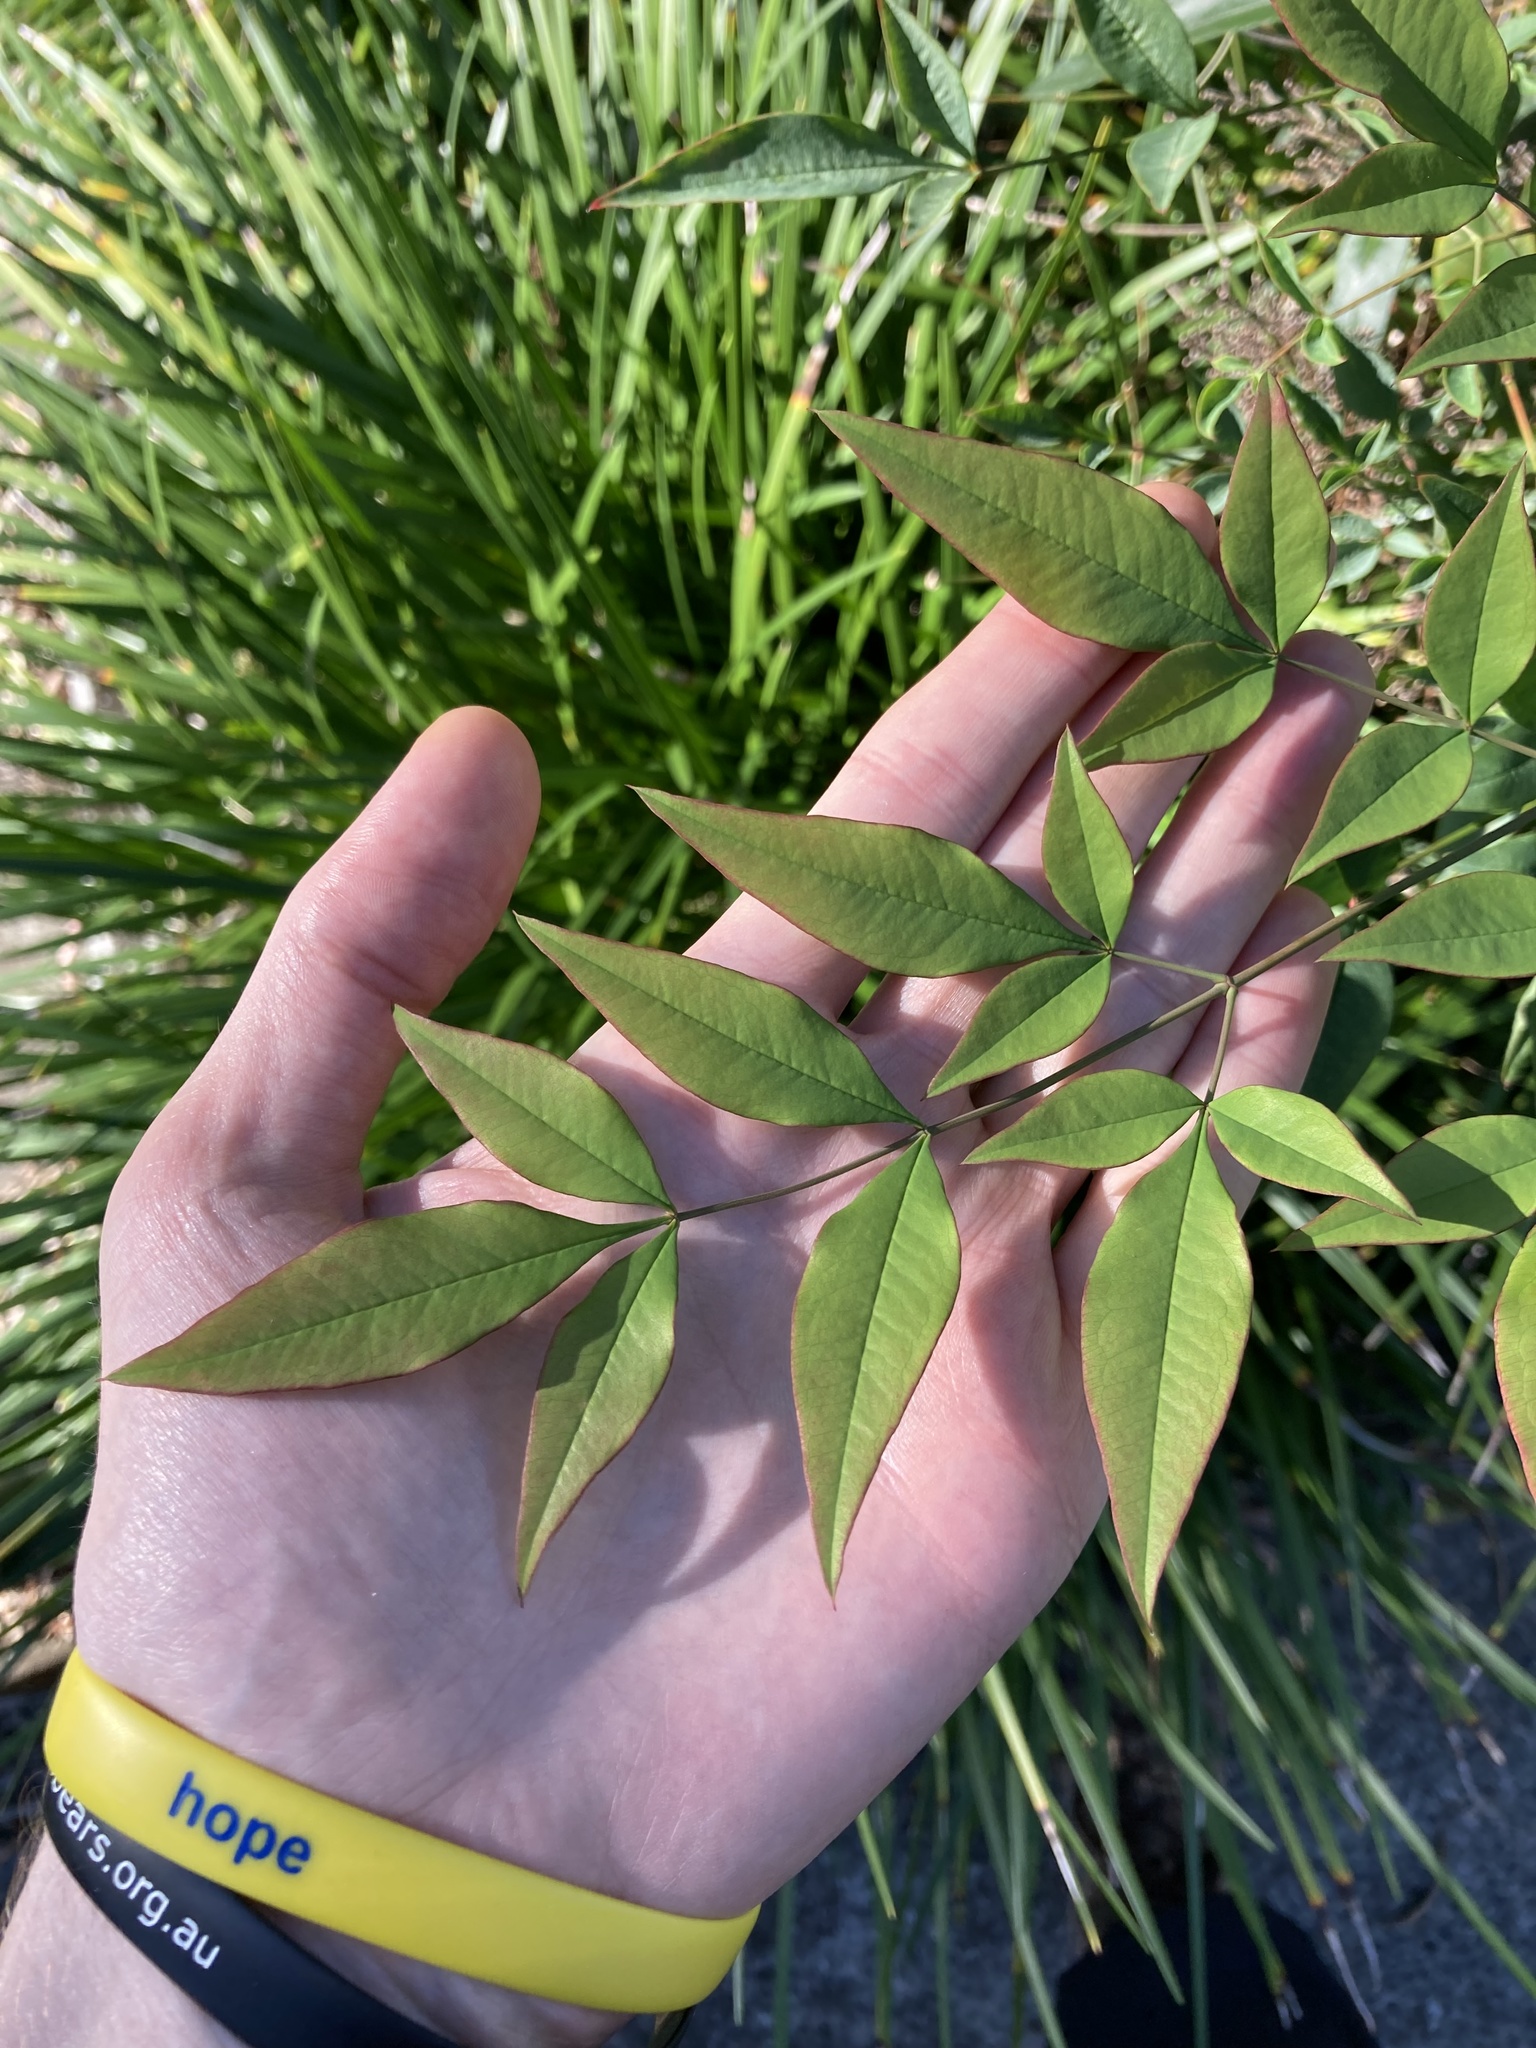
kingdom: Plantae
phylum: Tracheophyta
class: Magnoliopsida
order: Ranunculales
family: Berberidaceae
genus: Nandina
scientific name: Nandina domestica
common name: Sacred bamboo
